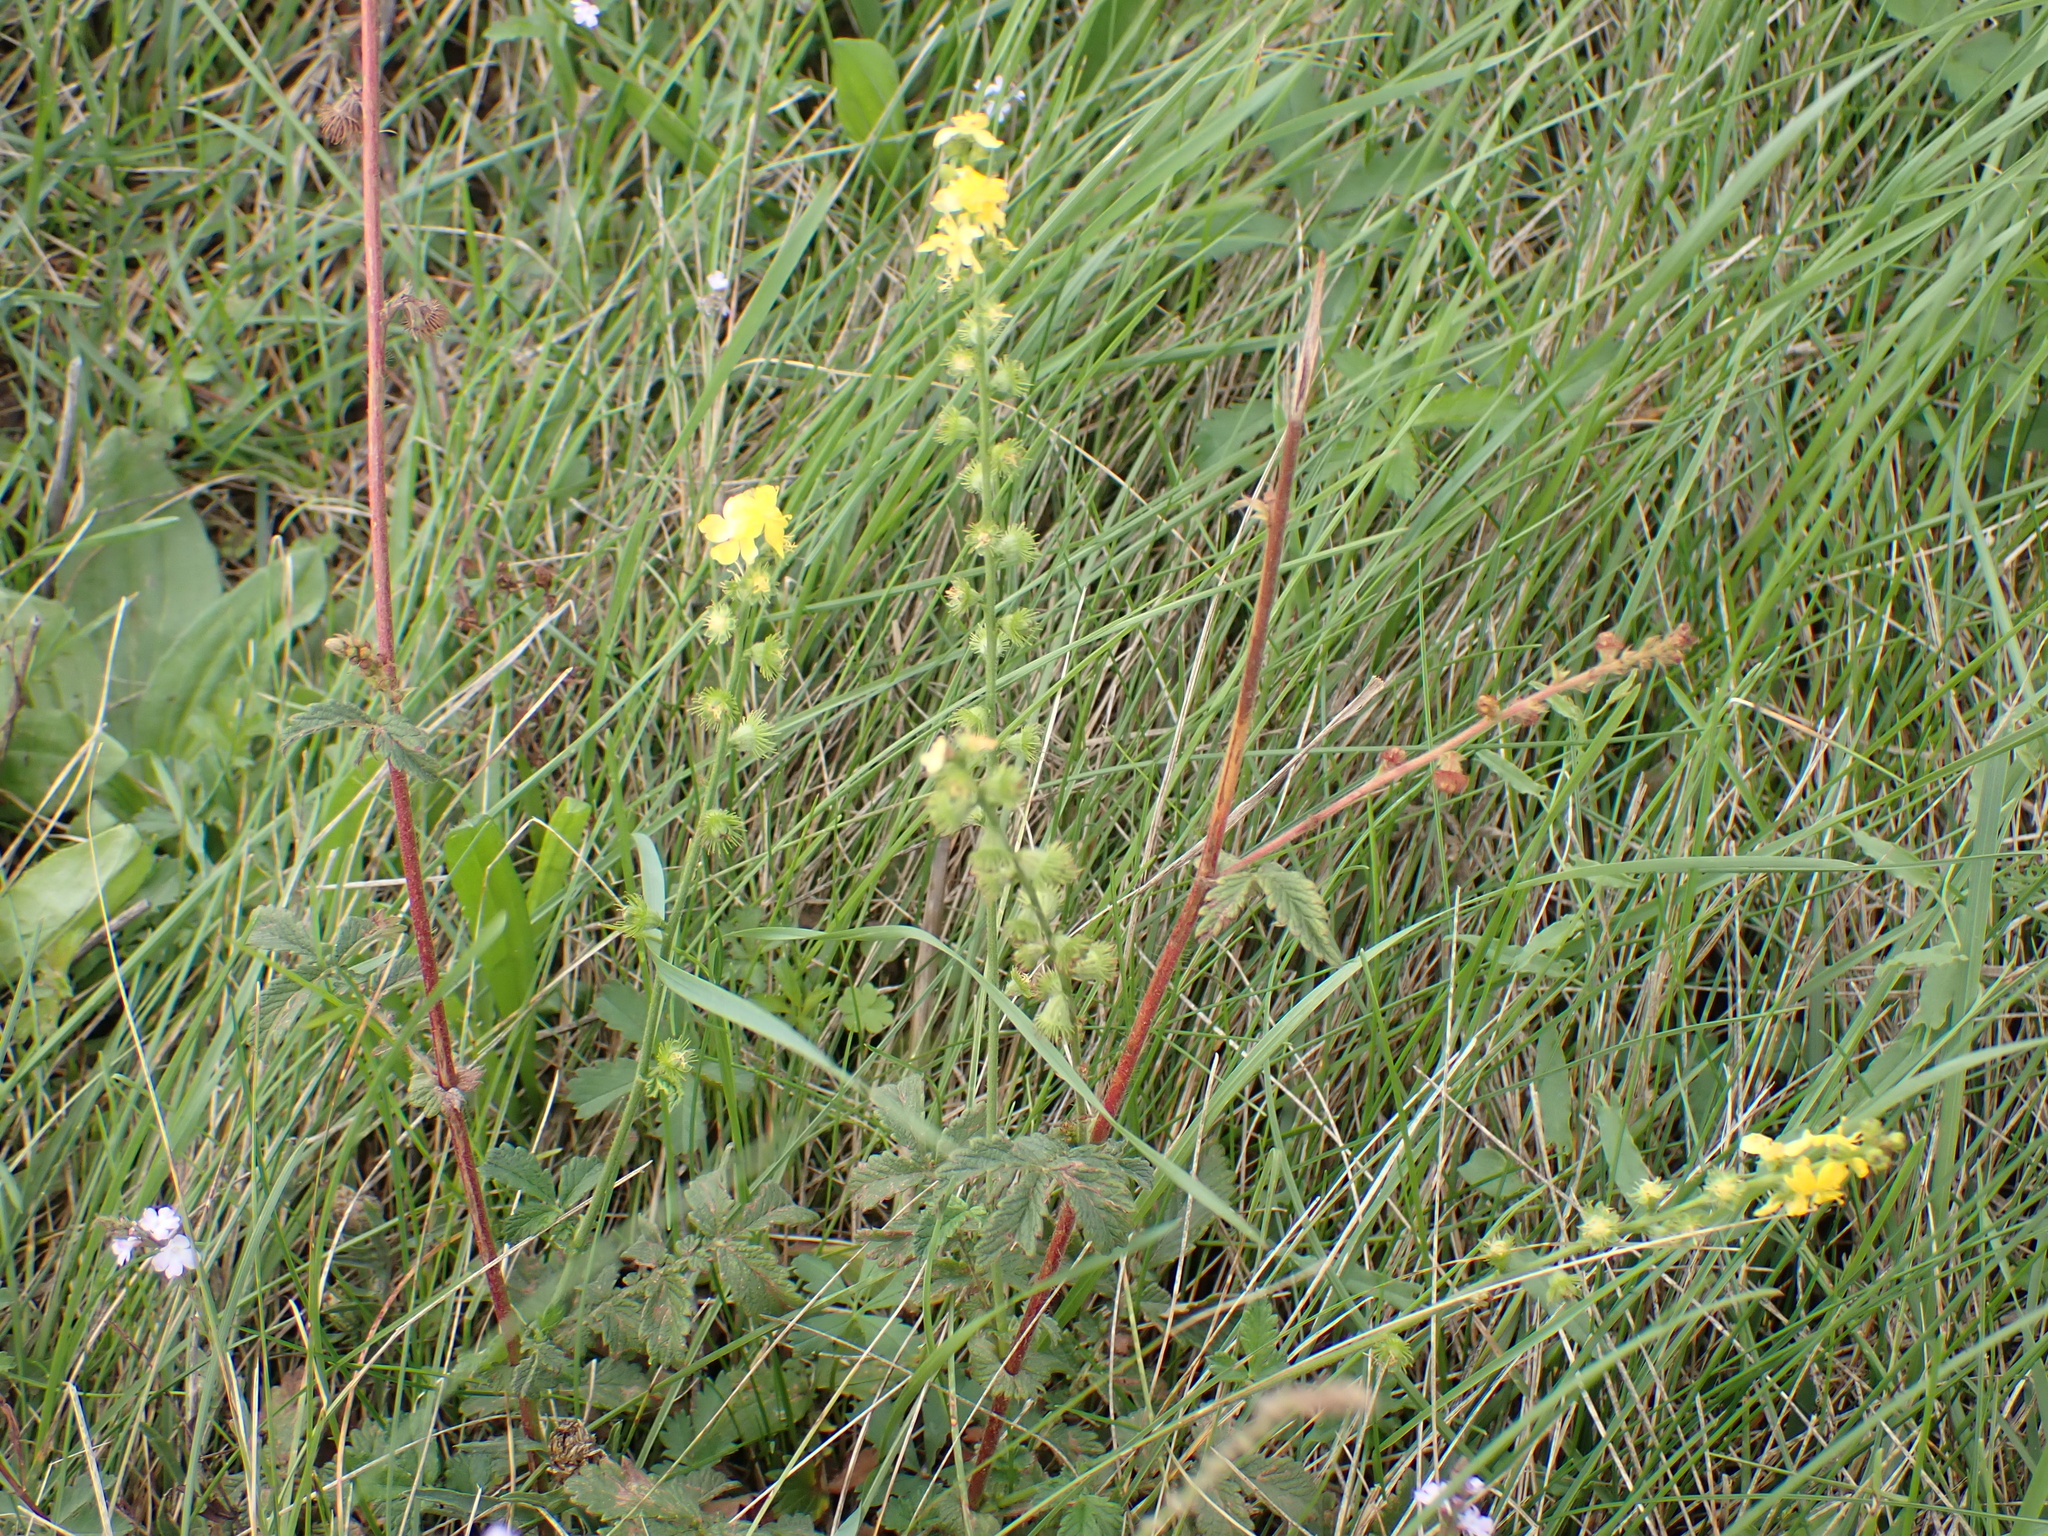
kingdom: Plantae
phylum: Tracheophyta
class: Magnoliopsida
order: Rosales
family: Rosaceae
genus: Agrimonia
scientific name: Agrimonia eupatoria
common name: Agrimony
